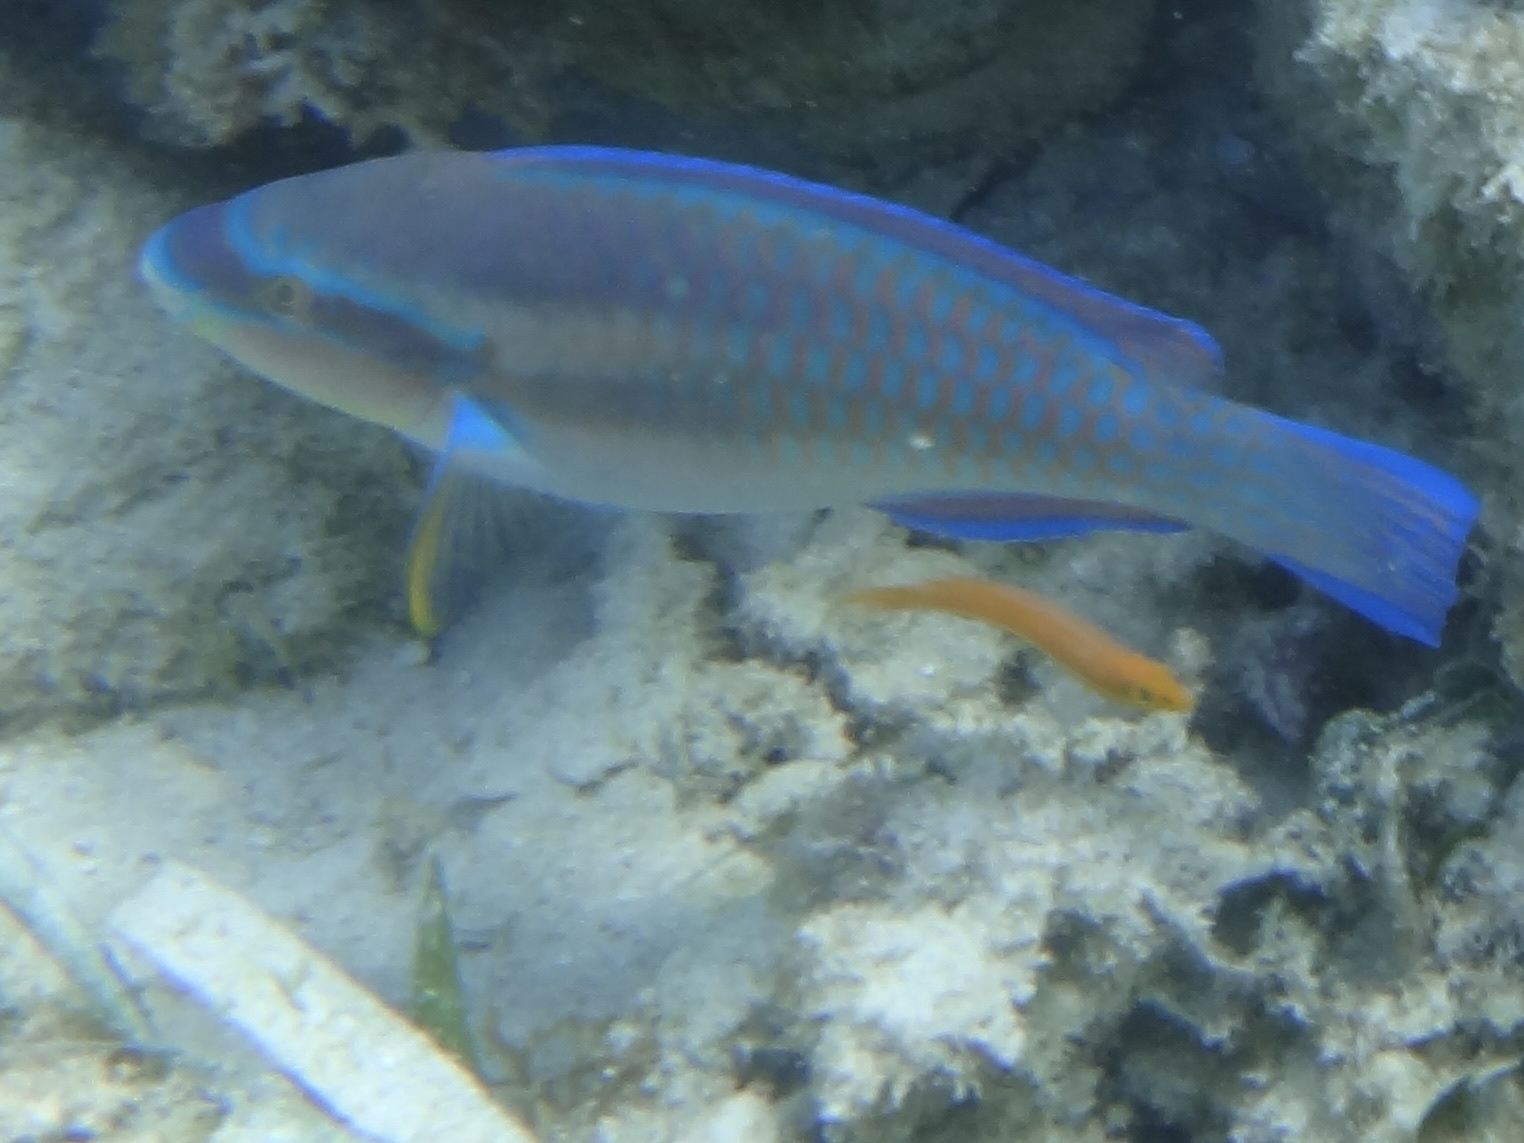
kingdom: Animalia
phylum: Chordata
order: Perciformes
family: Scaridae
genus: Scarus
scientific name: Scarus iseri
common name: Striped parrotfish
